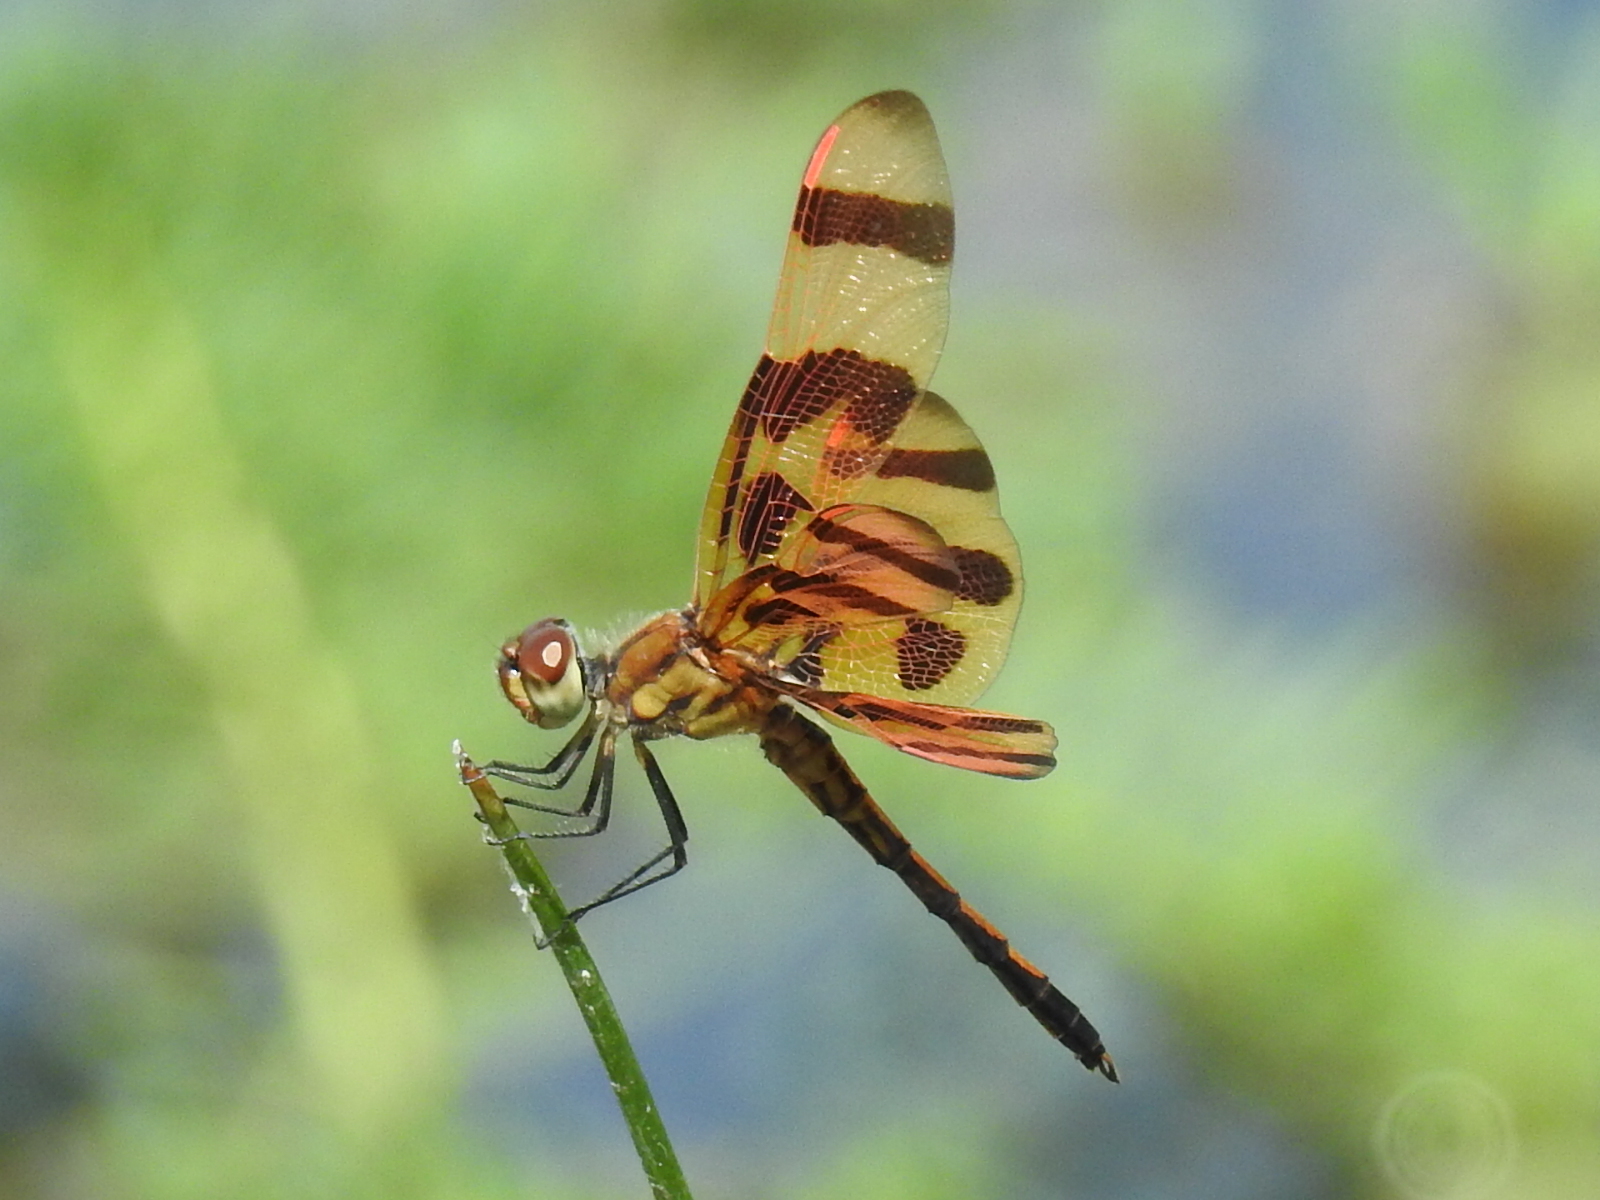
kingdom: Animalia
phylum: Arthropoda
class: Insecta
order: Odonata
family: Libellulidae
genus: Celithemis
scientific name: Celithemis eponina
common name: Halloween pennant
